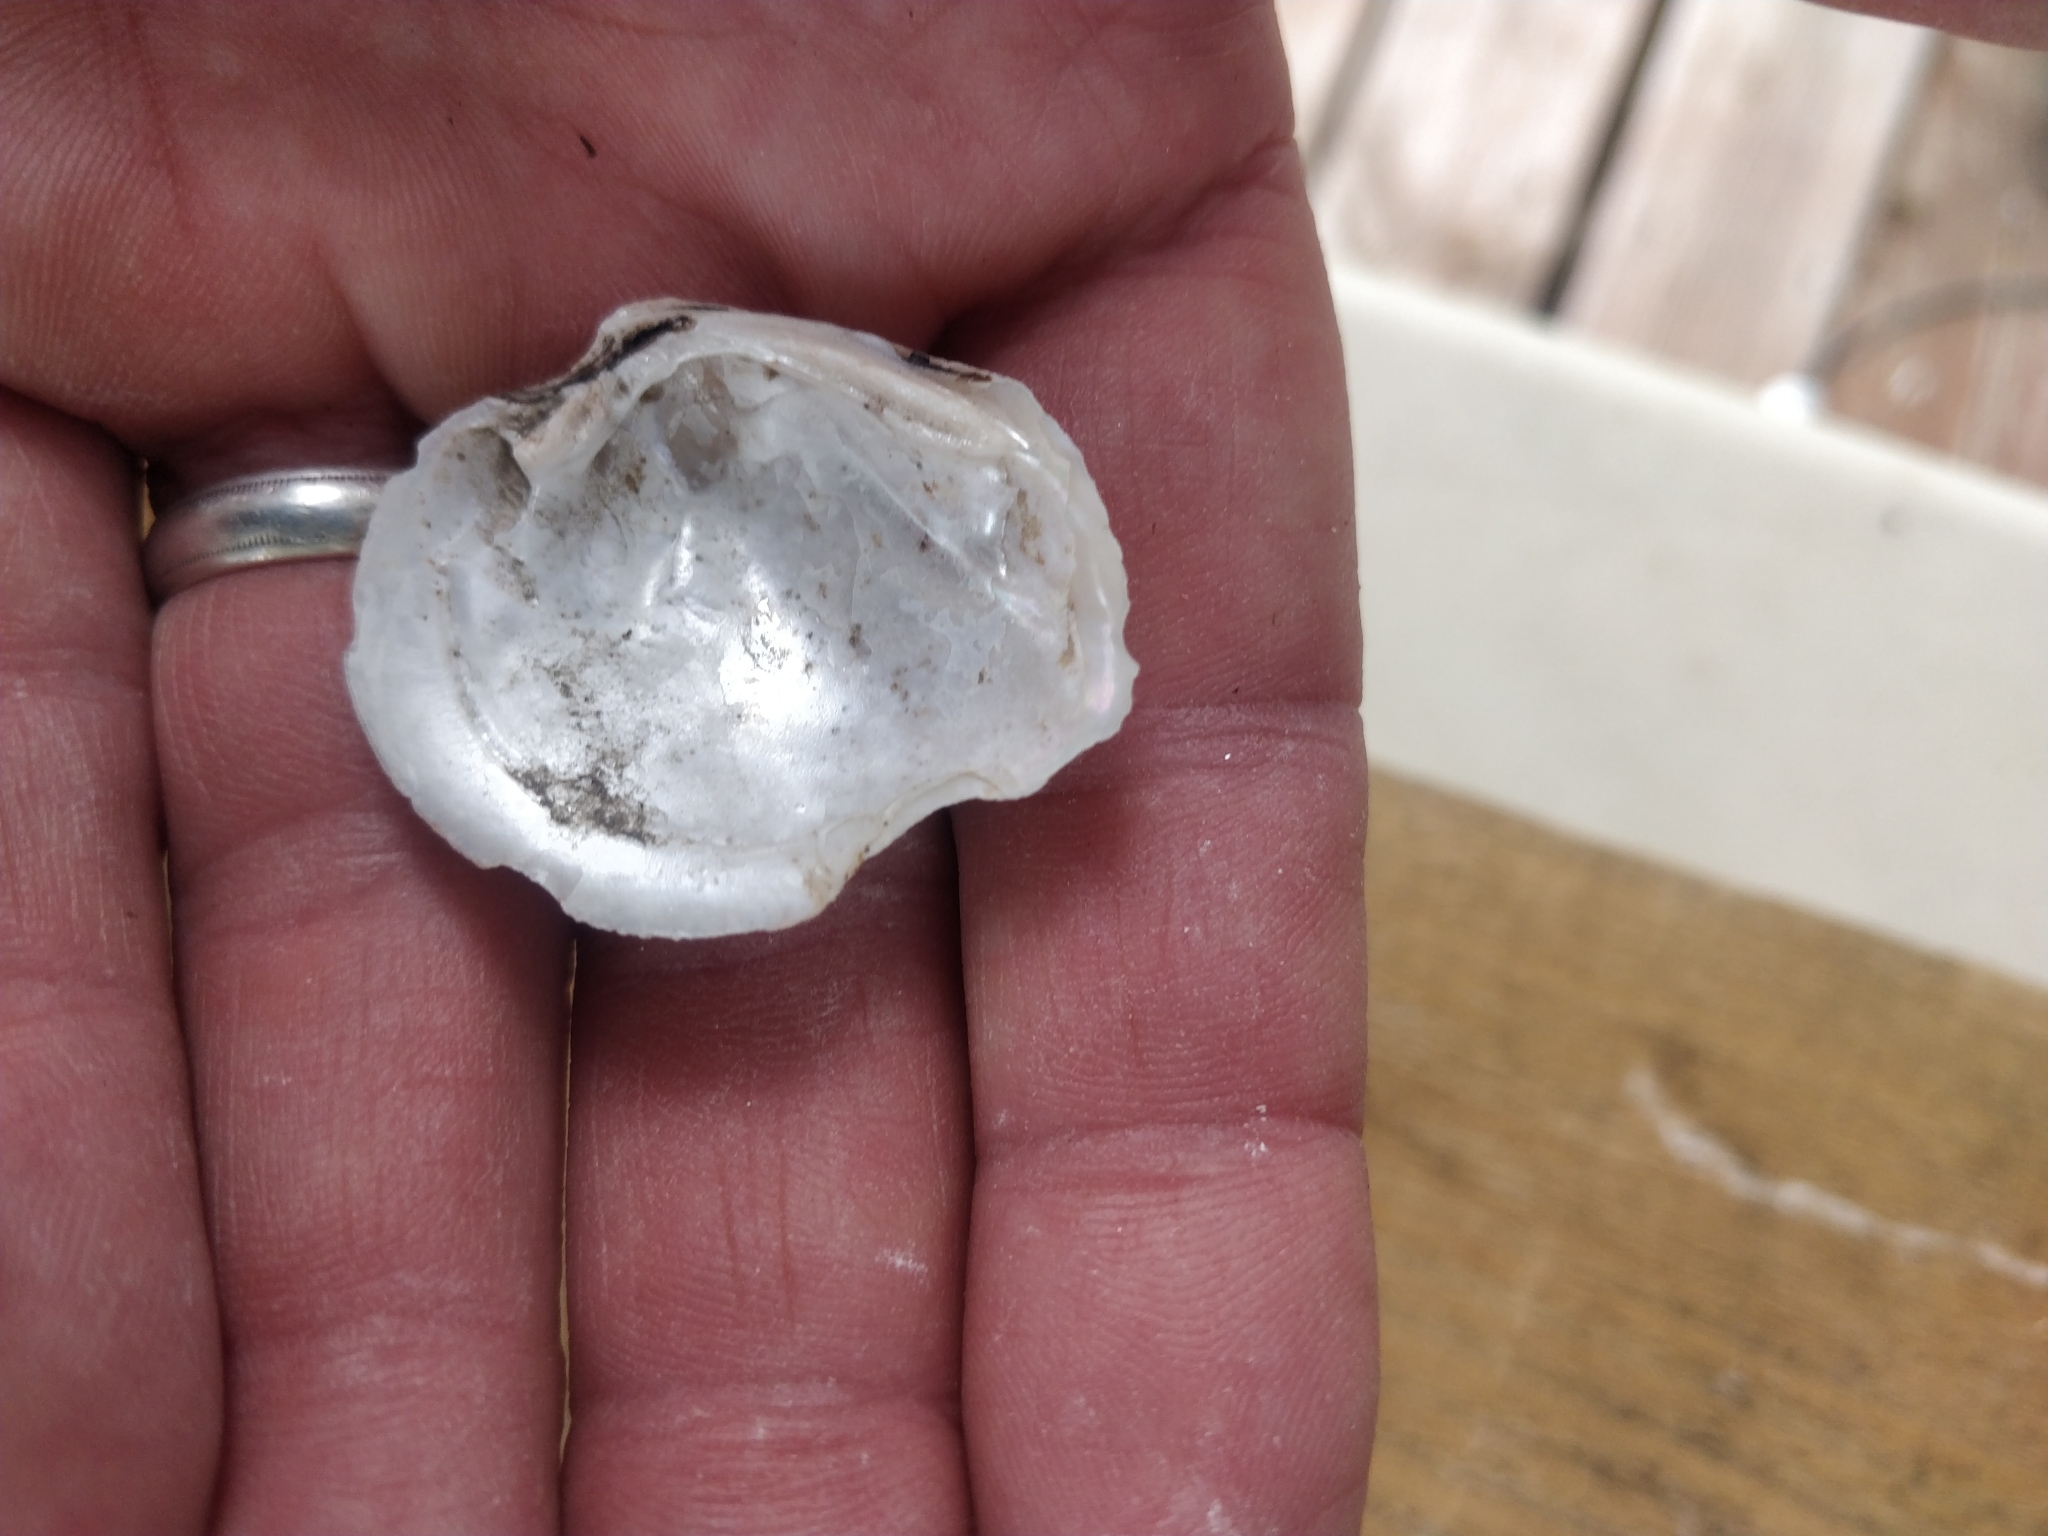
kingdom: Animalia
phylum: Mollusca
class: Bivalvia
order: Unionida
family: Unionidae
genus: Fusconaia
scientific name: Fusconaia flava
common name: Wabash pigtoe
